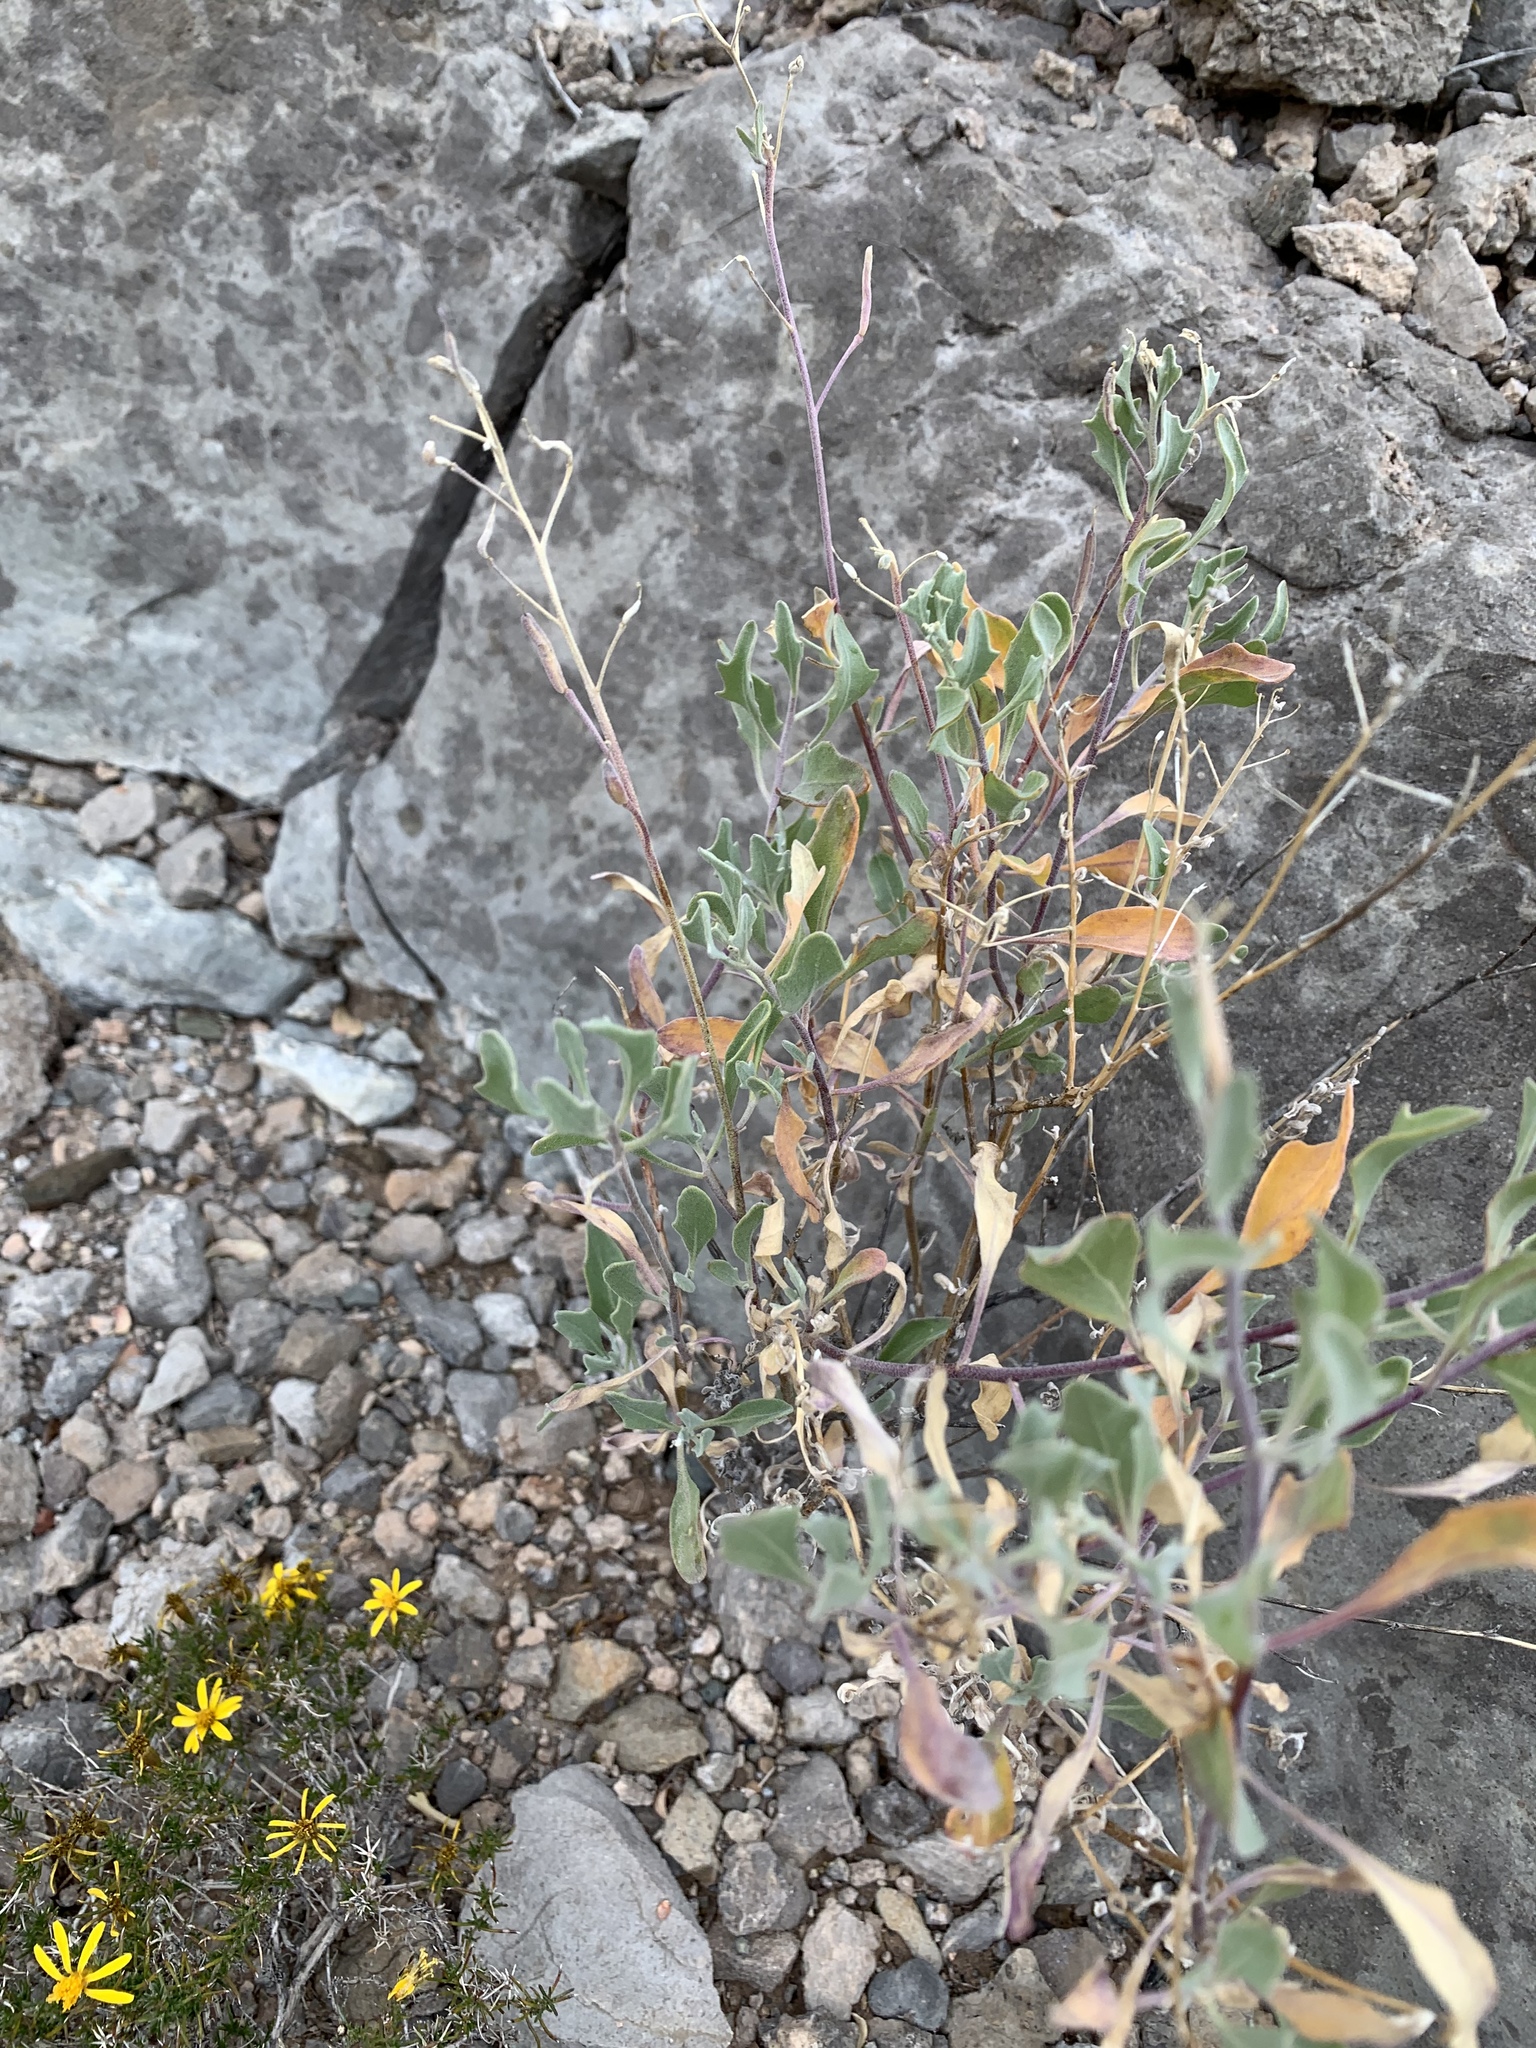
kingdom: Plantae
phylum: Tracheophyta
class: Magnoliopsida
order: Brassicales
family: Brassicaceae
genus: Nerisyrenia
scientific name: Nerisyrenia camporum
